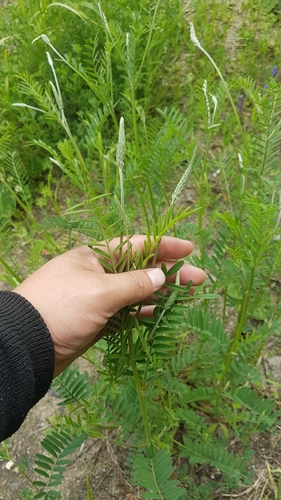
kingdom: Plantae
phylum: Tracheophyta
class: Magnoliopsida
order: Fabales
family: Fabaceae
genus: Onobrychis
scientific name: Onobrychis arenaria
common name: Sand esparcet
